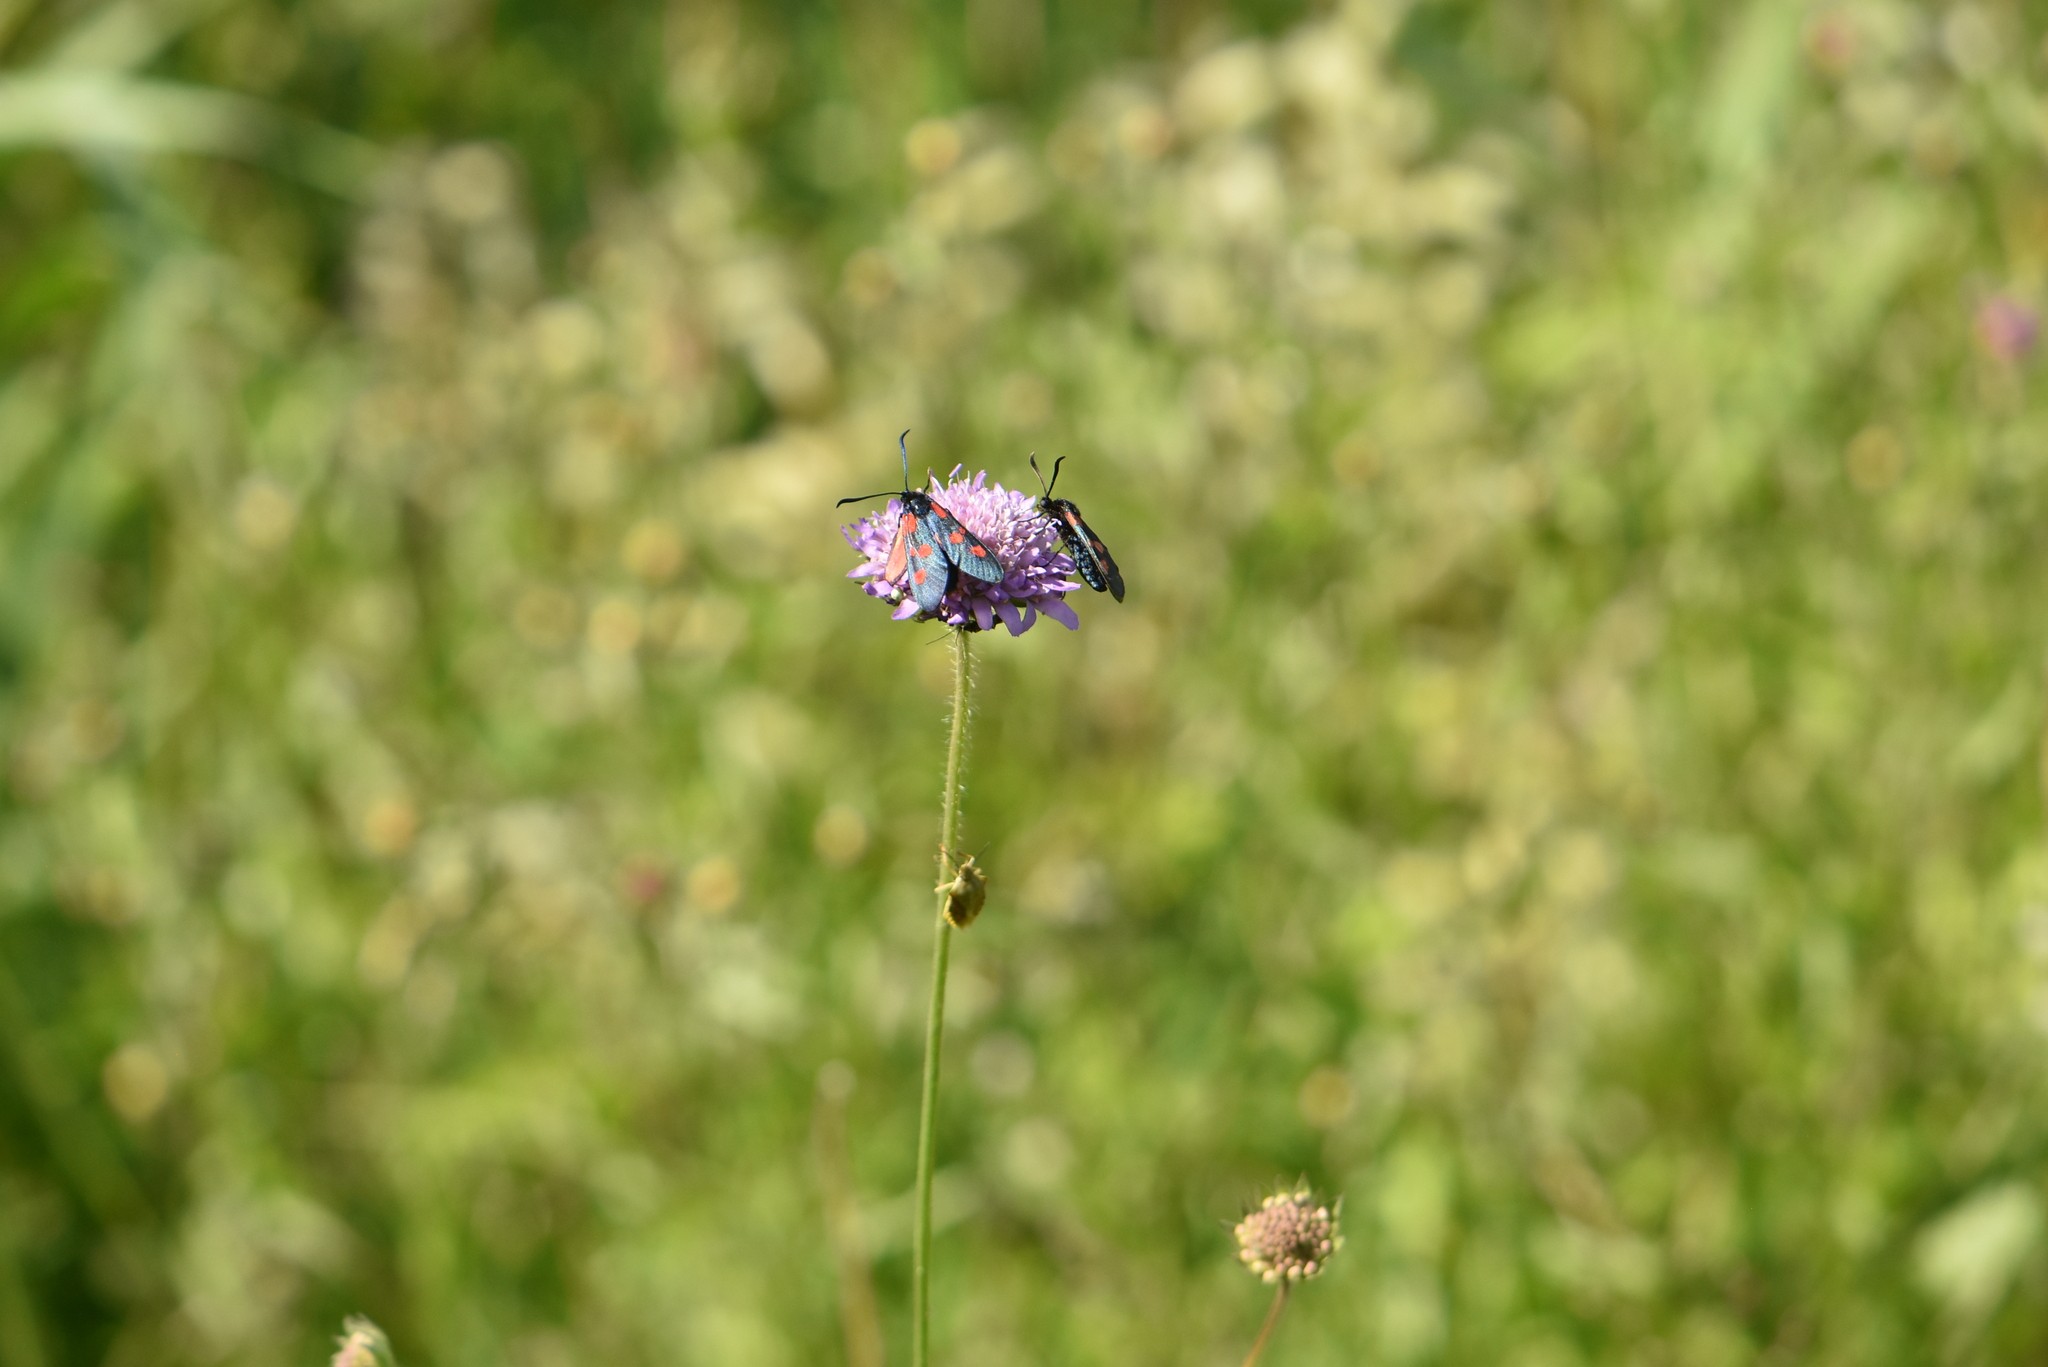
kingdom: Animalia
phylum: Arthropoda
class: Insecta
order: Lepidoptera
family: Zygaenidae
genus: Zygaena
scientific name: Zygaena lonicerae
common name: Narrow-bordered five-spot burnet
